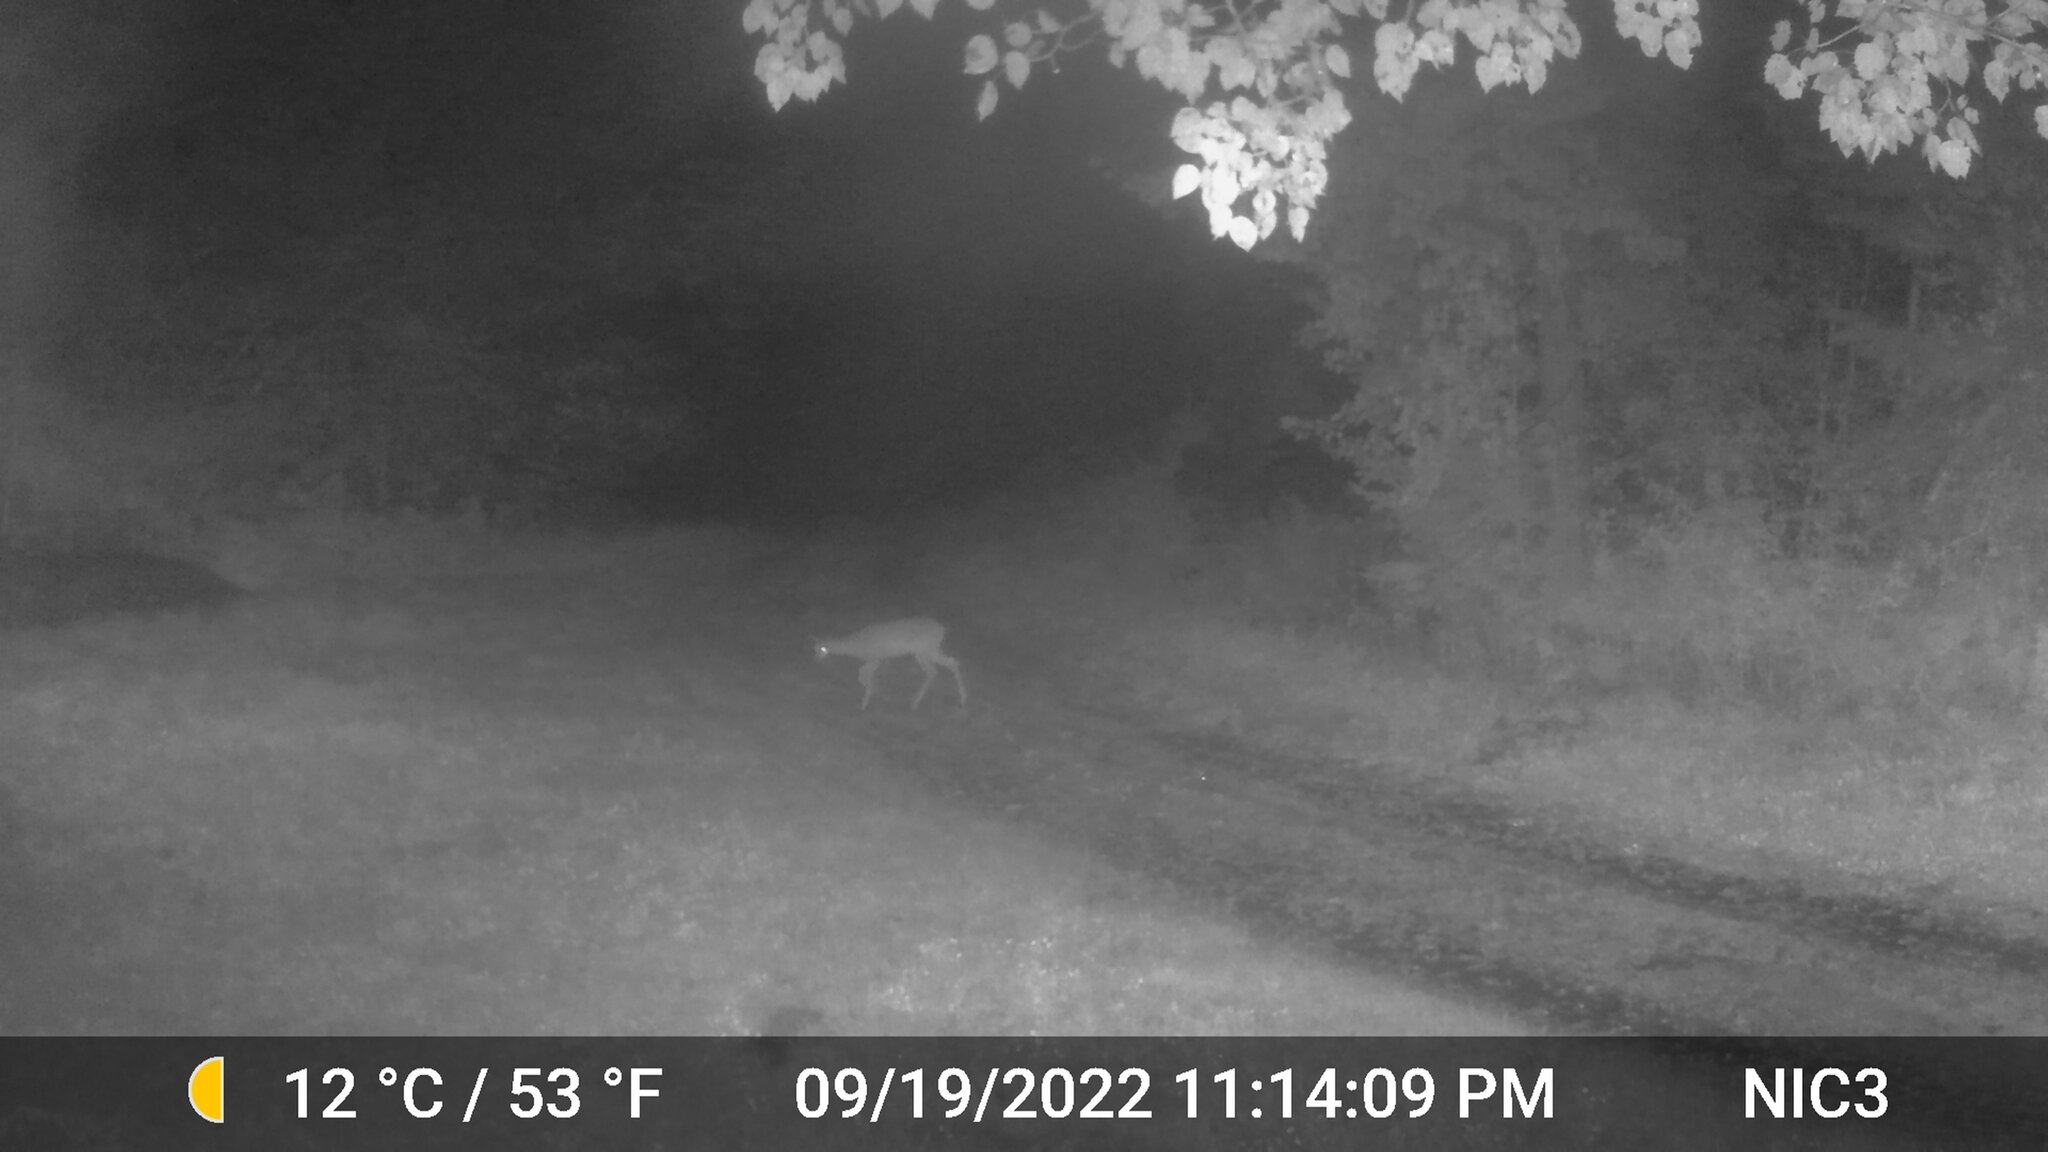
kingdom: Animalia
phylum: Chordata
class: Mammalia
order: Artiodactyla
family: Cervidae
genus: Odocoileus
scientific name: Odocoileus virginianus
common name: White-tailed deer
